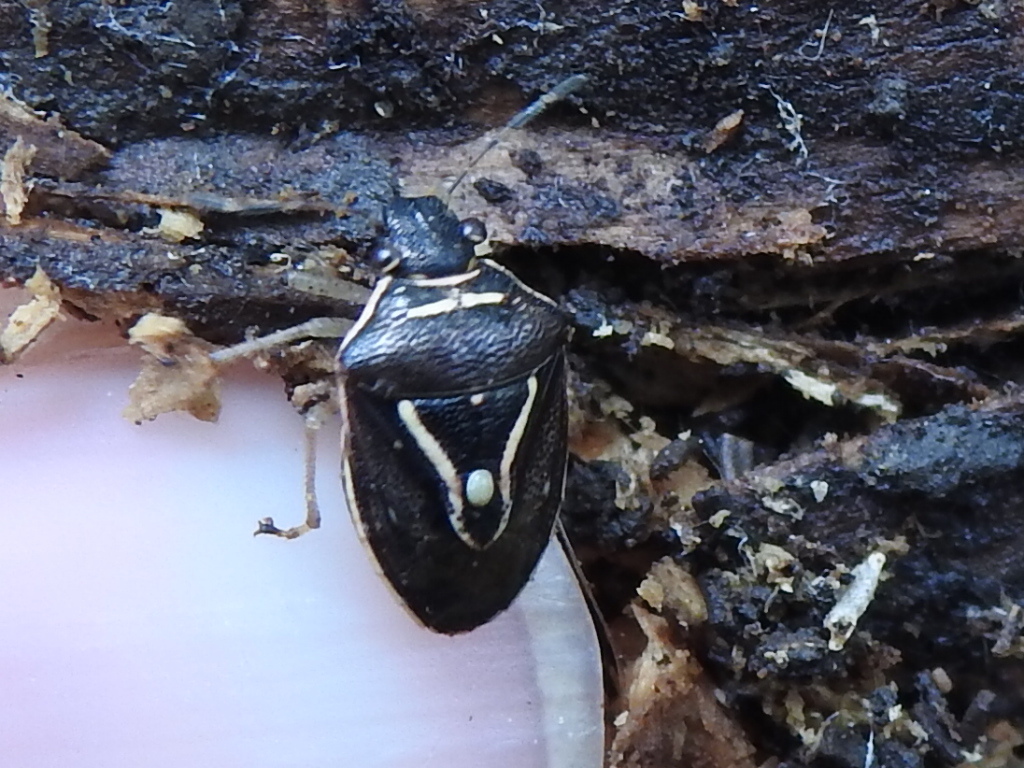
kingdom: Animalia
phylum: Arthropoda
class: Insecta
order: Hemiptera
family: Pentatomidae
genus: Mormidea
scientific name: Mormidea lugens
